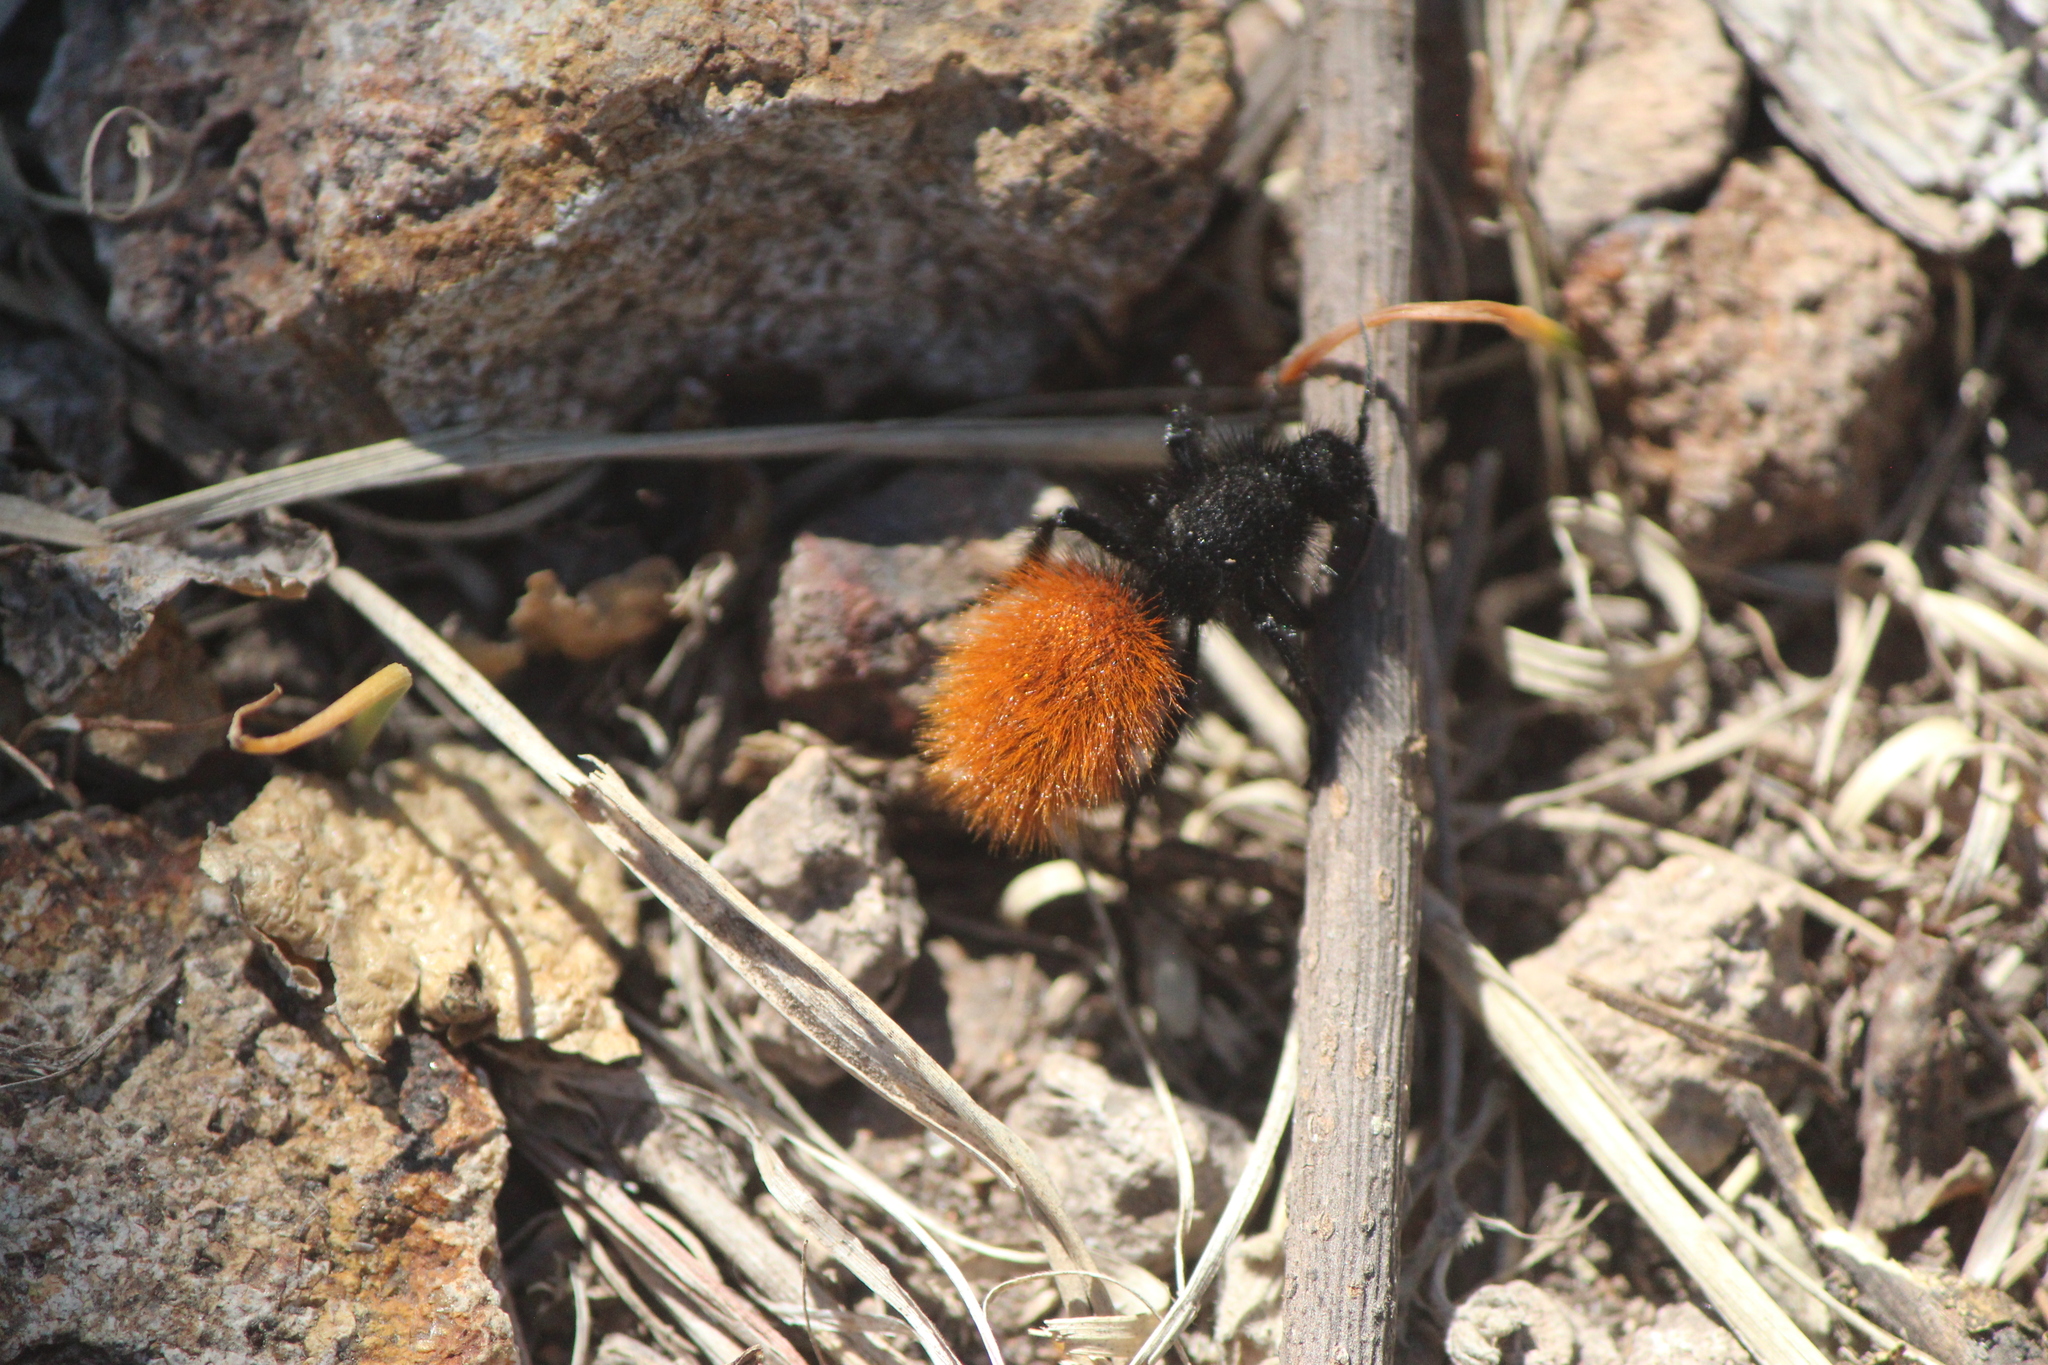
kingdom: Animalia
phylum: Arthropoda
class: Insecta
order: Hymenoptera
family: Mutillidae
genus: Dasymutilla
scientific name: Dasymutilla
